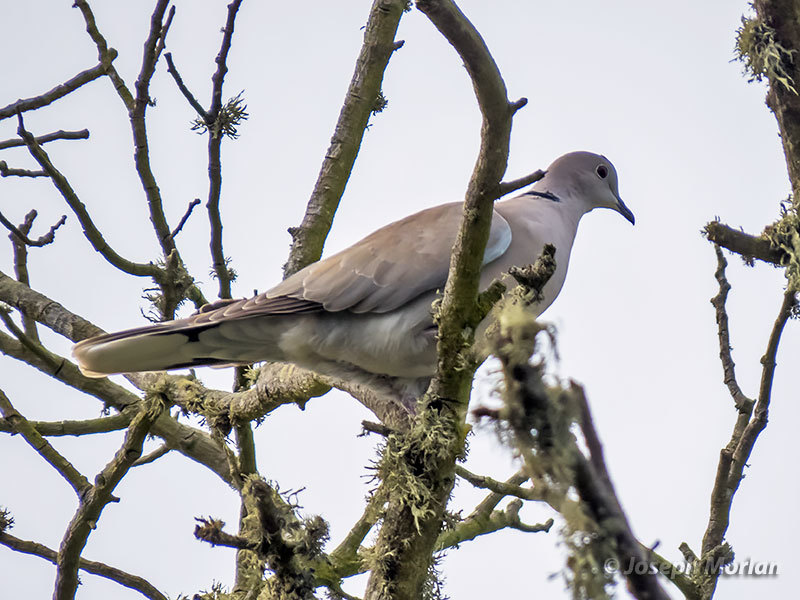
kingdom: Animalia
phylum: Chordata
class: Aves
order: Columbiformes
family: Columbidae
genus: Streptopelia
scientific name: Streptopelia decaocto
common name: Eurasian collared dove
